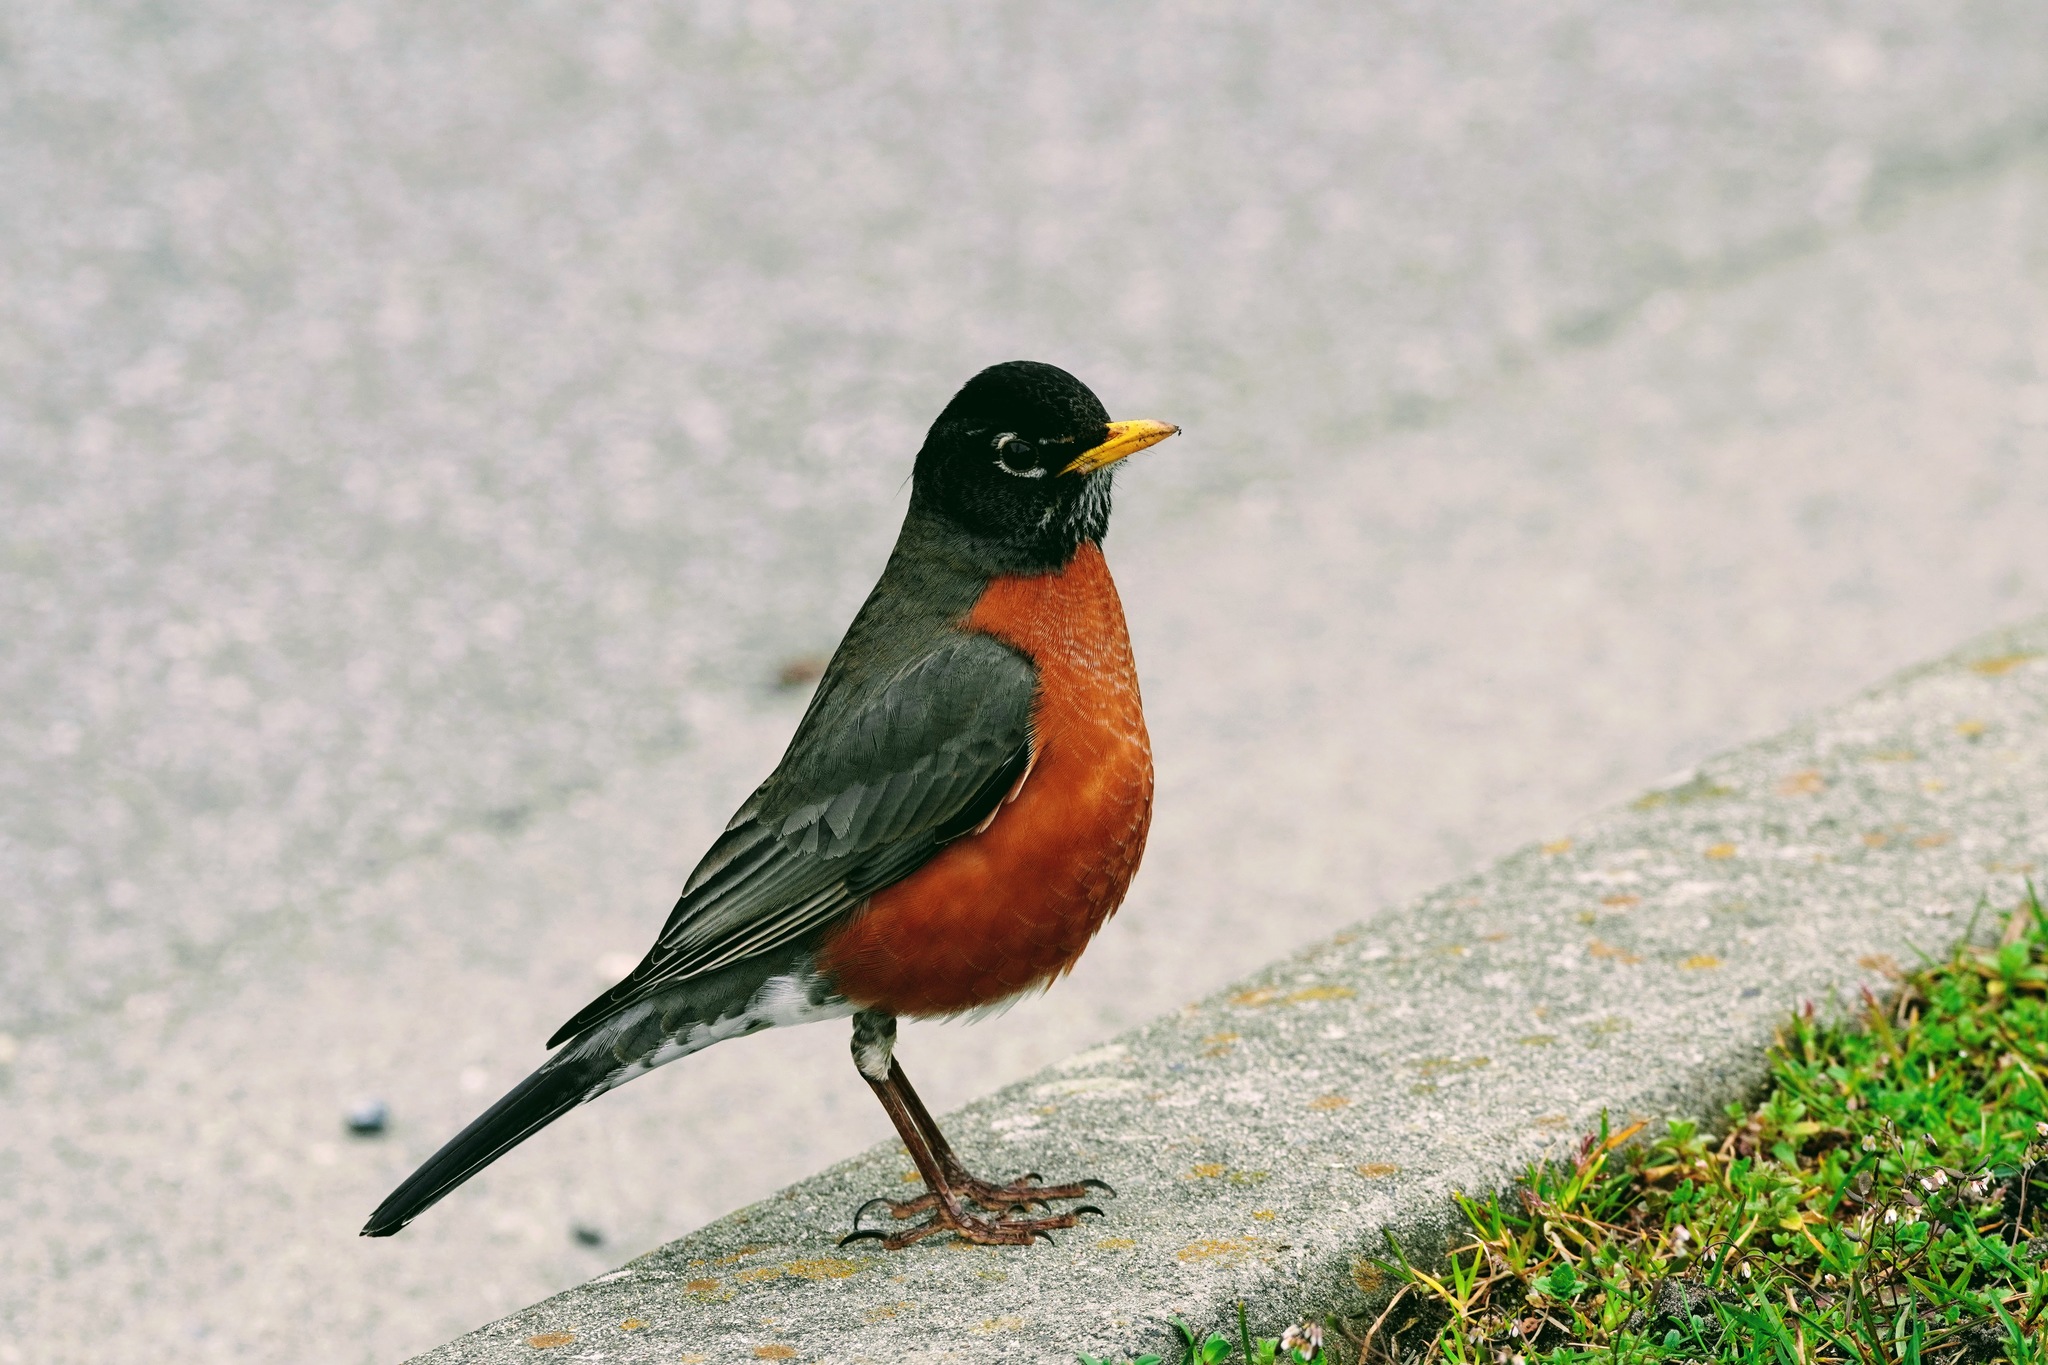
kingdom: Animalia
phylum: Chordata
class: Aves
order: Passeriformes
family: Turdidae
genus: Turdus
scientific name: Turdus migratorius
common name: American robin
